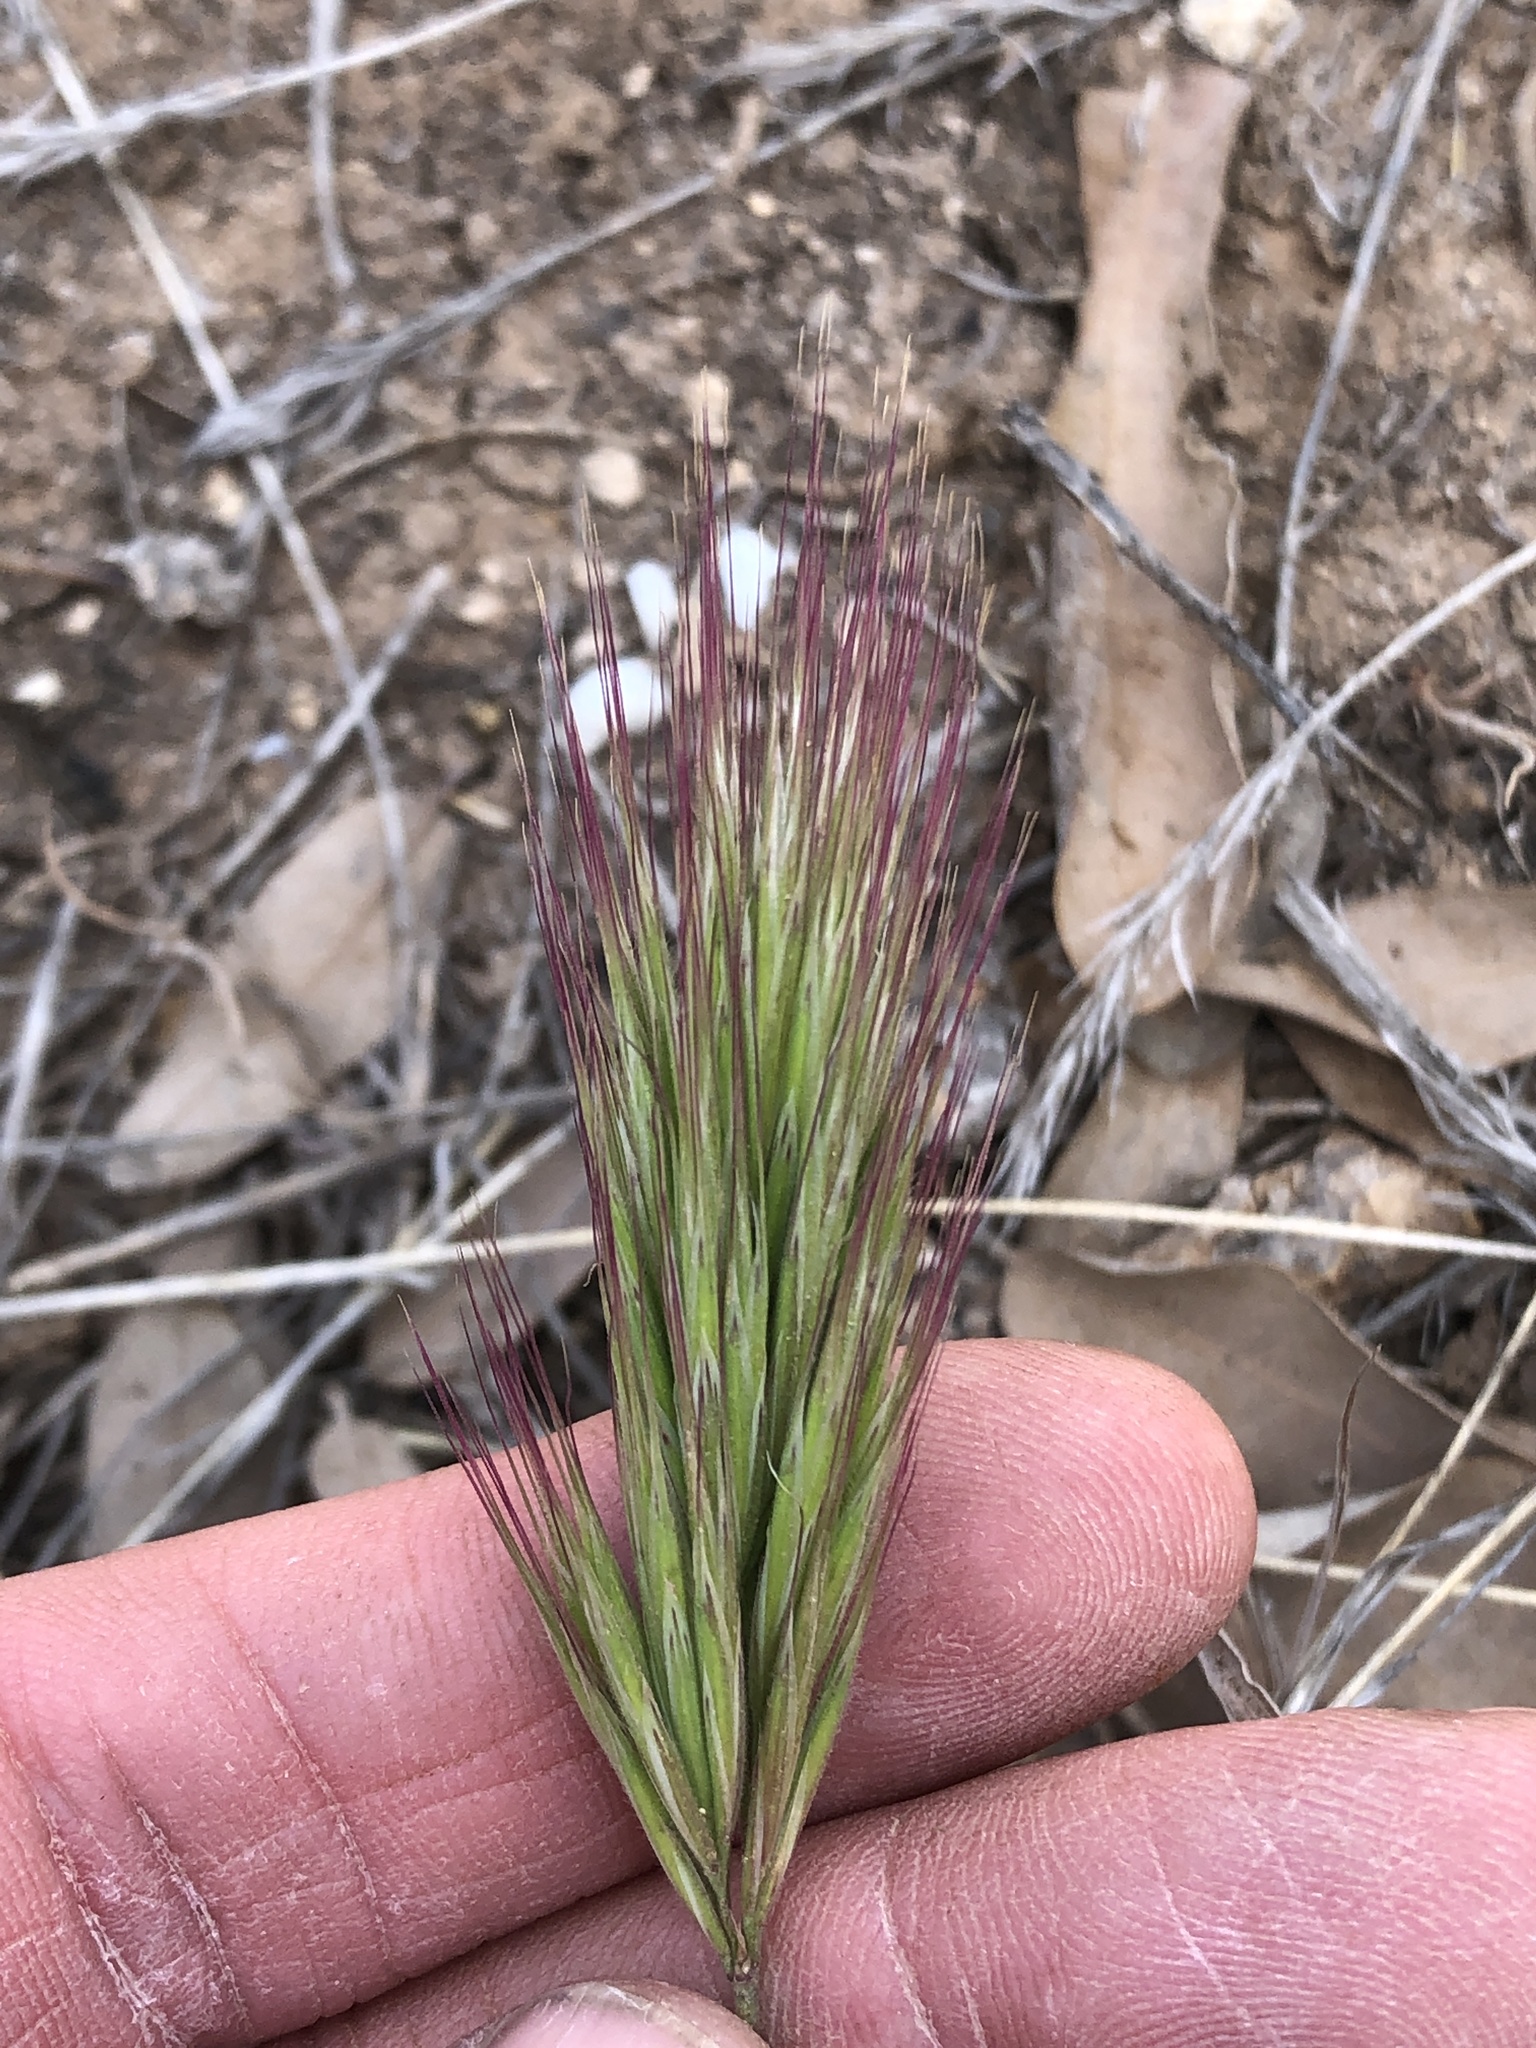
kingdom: Plantae
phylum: Tracheophyta
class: Liliopsida
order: Poales
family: Poaceae
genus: Bromus
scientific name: Bromus rubens
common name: Red brome
